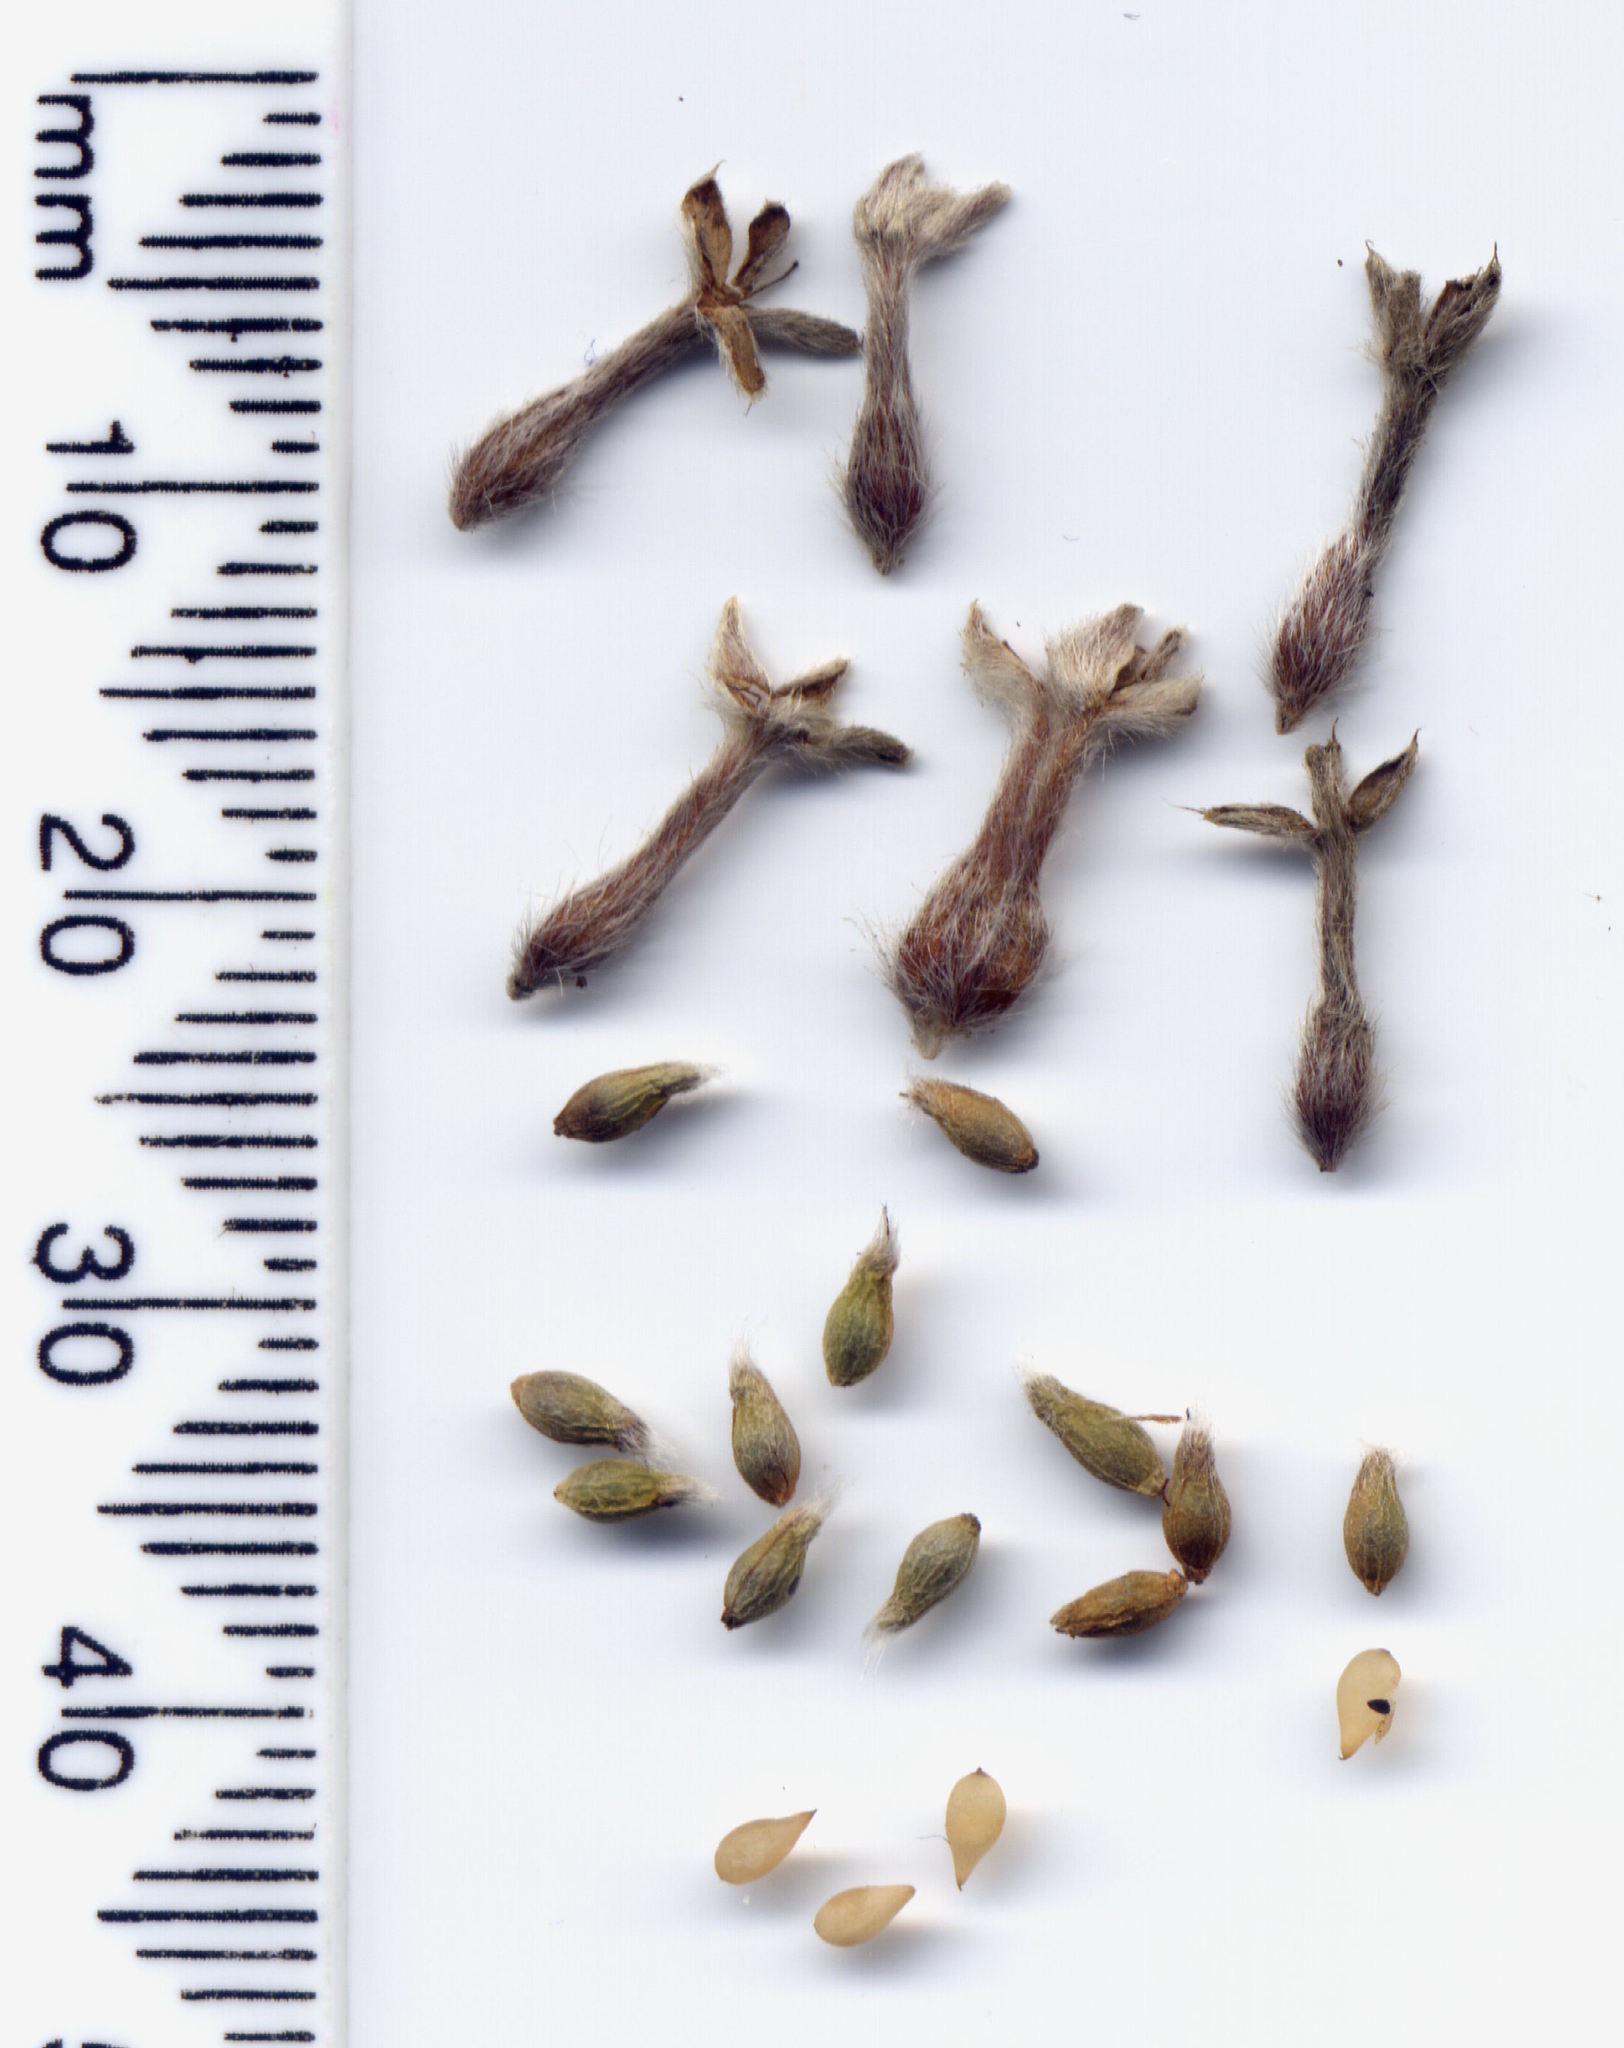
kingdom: Plantae
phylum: Tracheophyta
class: Magnoliopsida
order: Malvales
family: Thymelaeaceae
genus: Pimelea
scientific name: Pimelea poppelwellii
